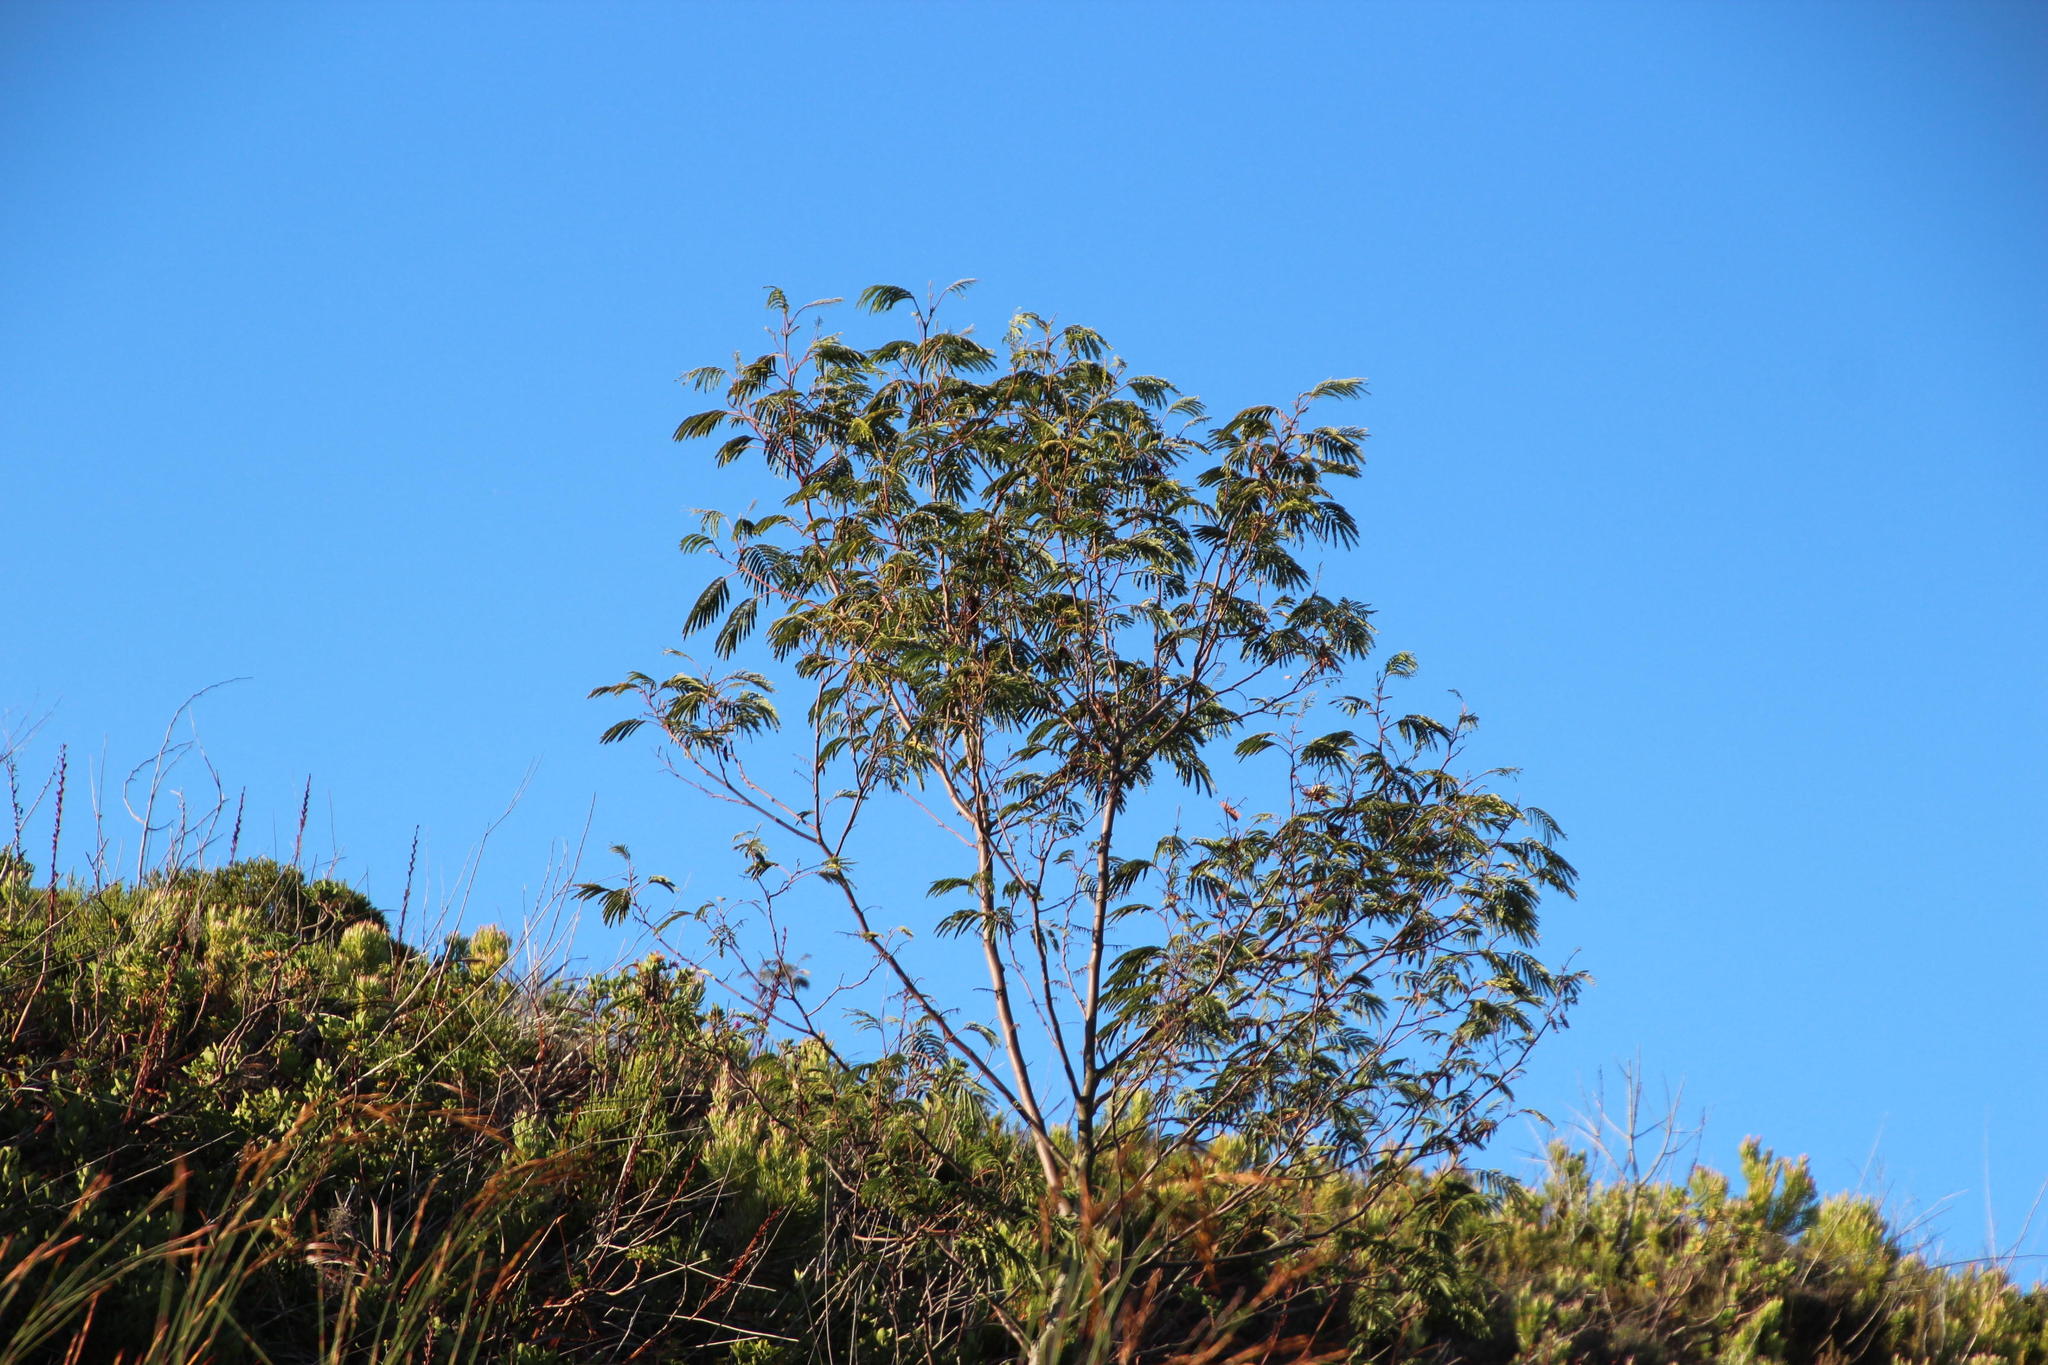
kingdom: Plantae
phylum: Tracheophyta
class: Magnoliopsida
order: Fabales
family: Fabaceae
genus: Paraserianthes
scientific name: Paraserianthes lophantha
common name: Plume albizia
